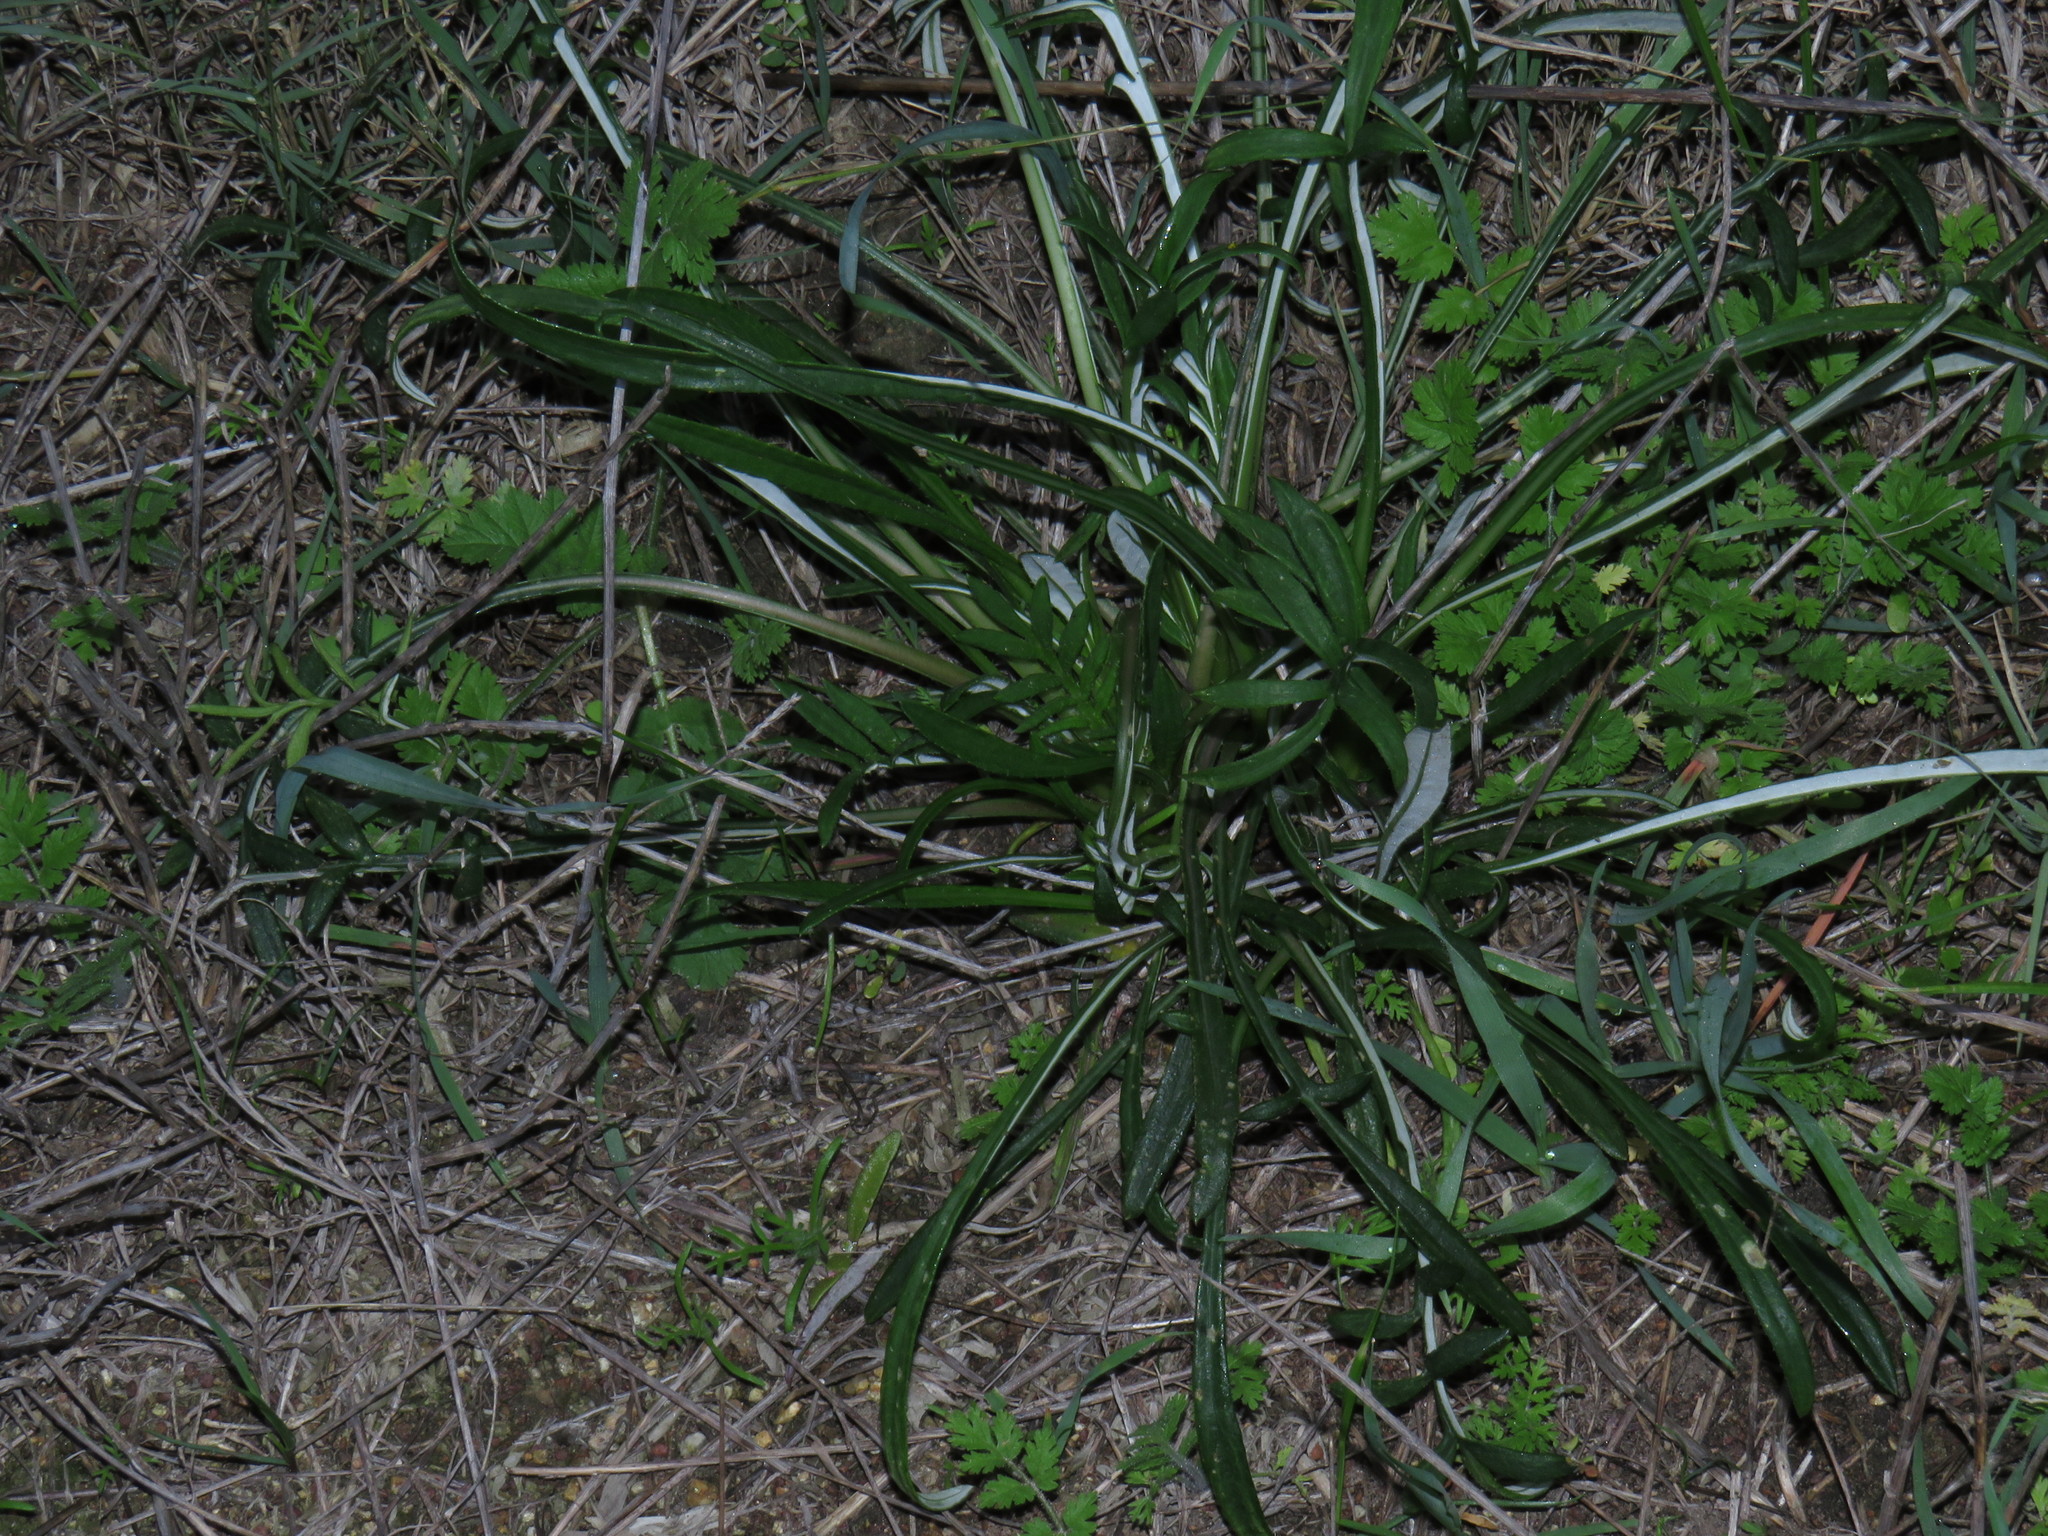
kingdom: Plantae
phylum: Tracheophyta
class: Magnoliopsida
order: Asterales
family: Asteraceae
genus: Gazania
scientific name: Gazania pectinata
